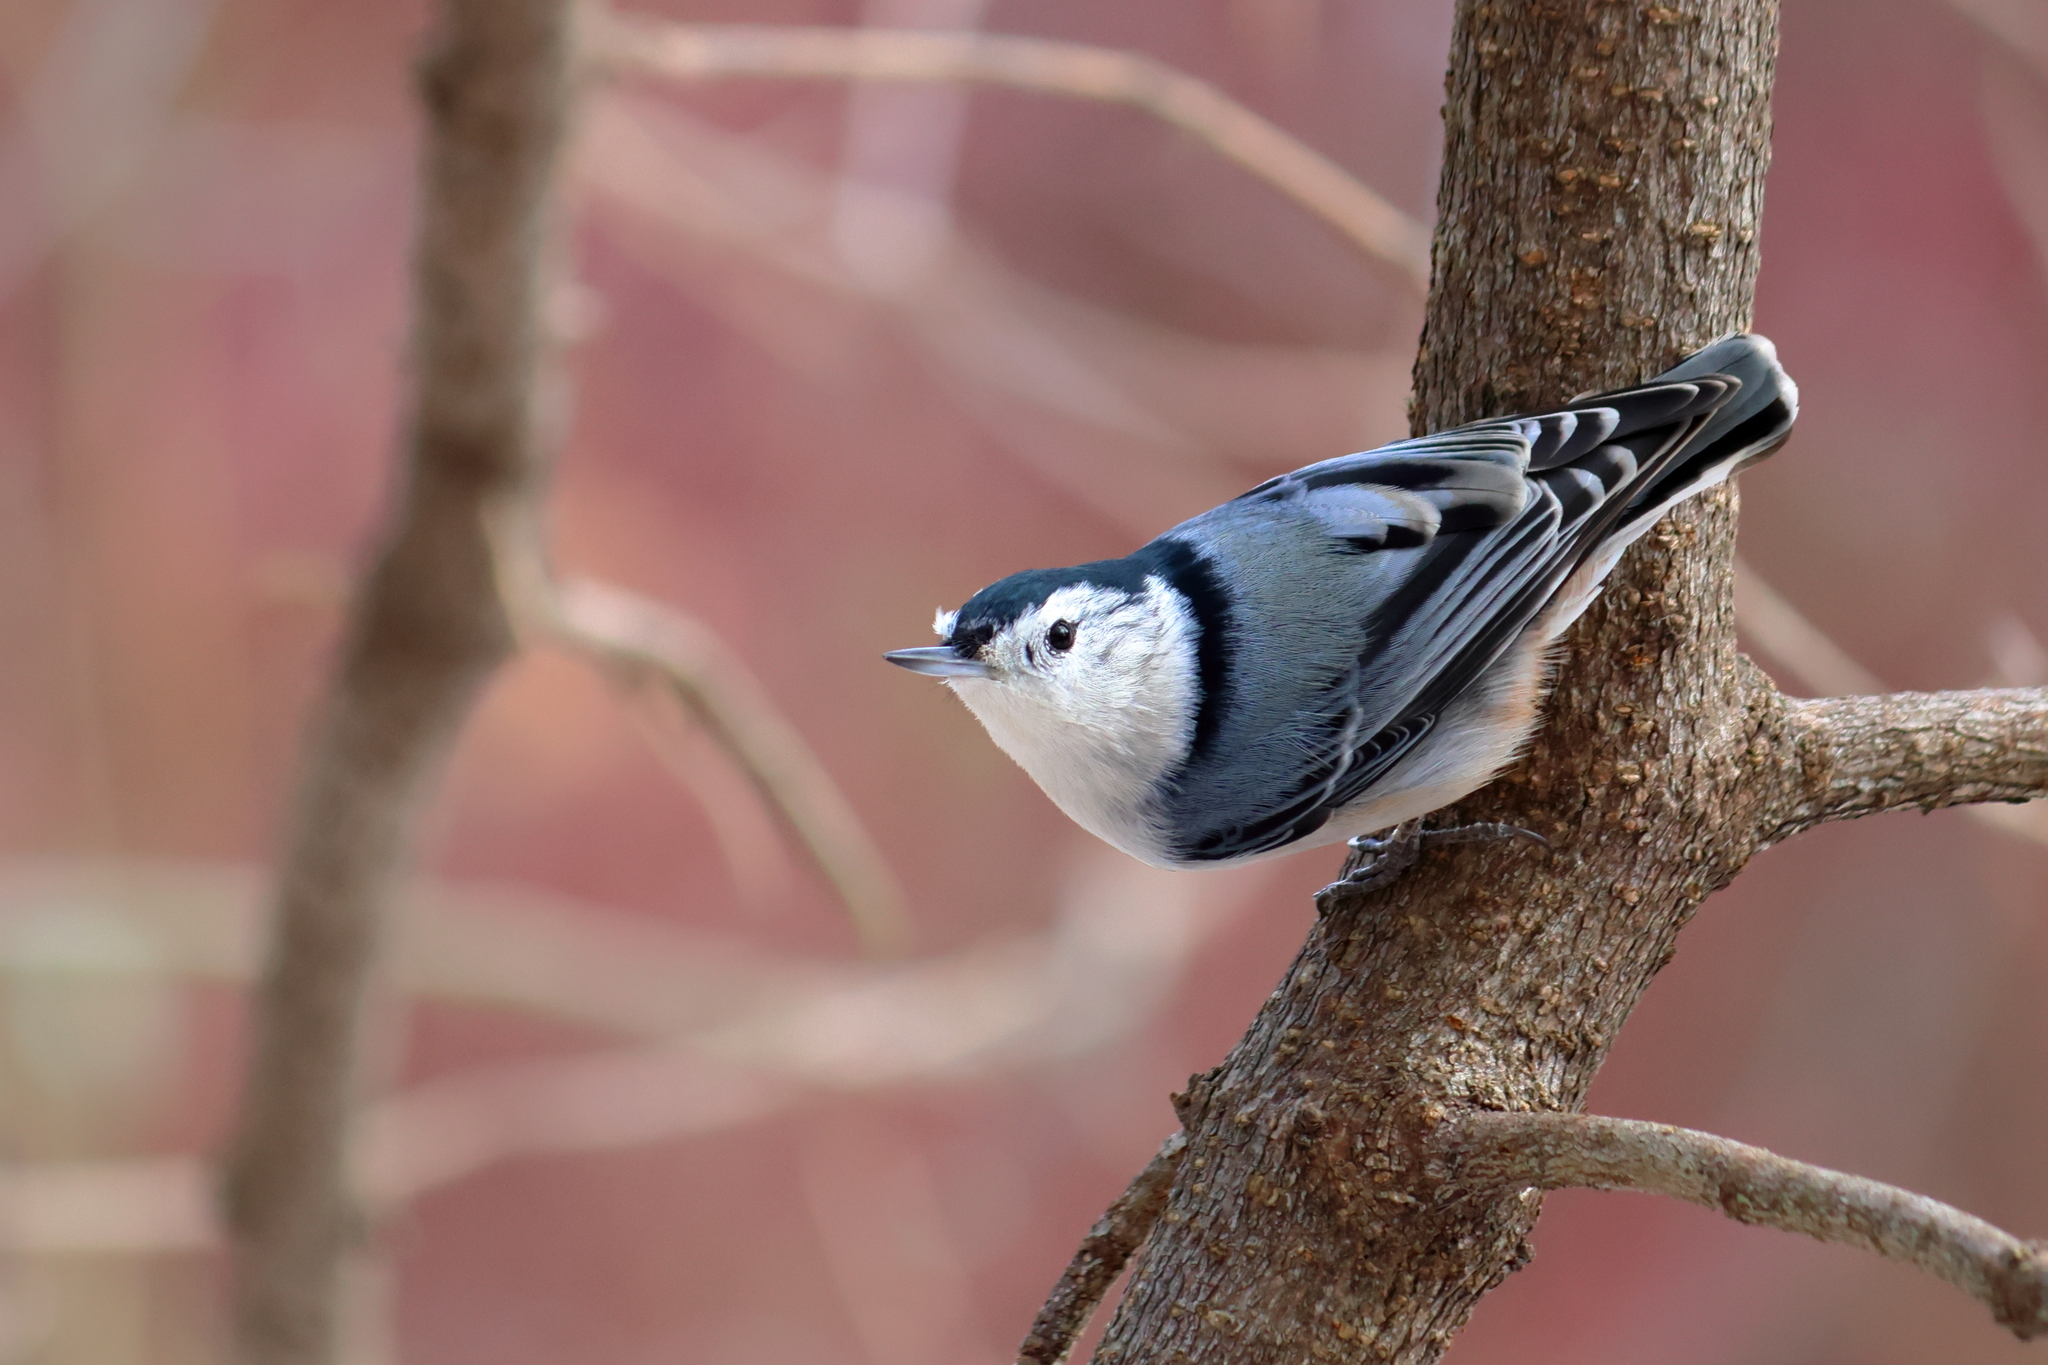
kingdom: Animalia
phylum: Chordata
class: Aves
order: Passeriformes
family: Sittidae
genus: Sitta
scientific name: Sitta carolinensis
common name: White-breasted nuthatch
